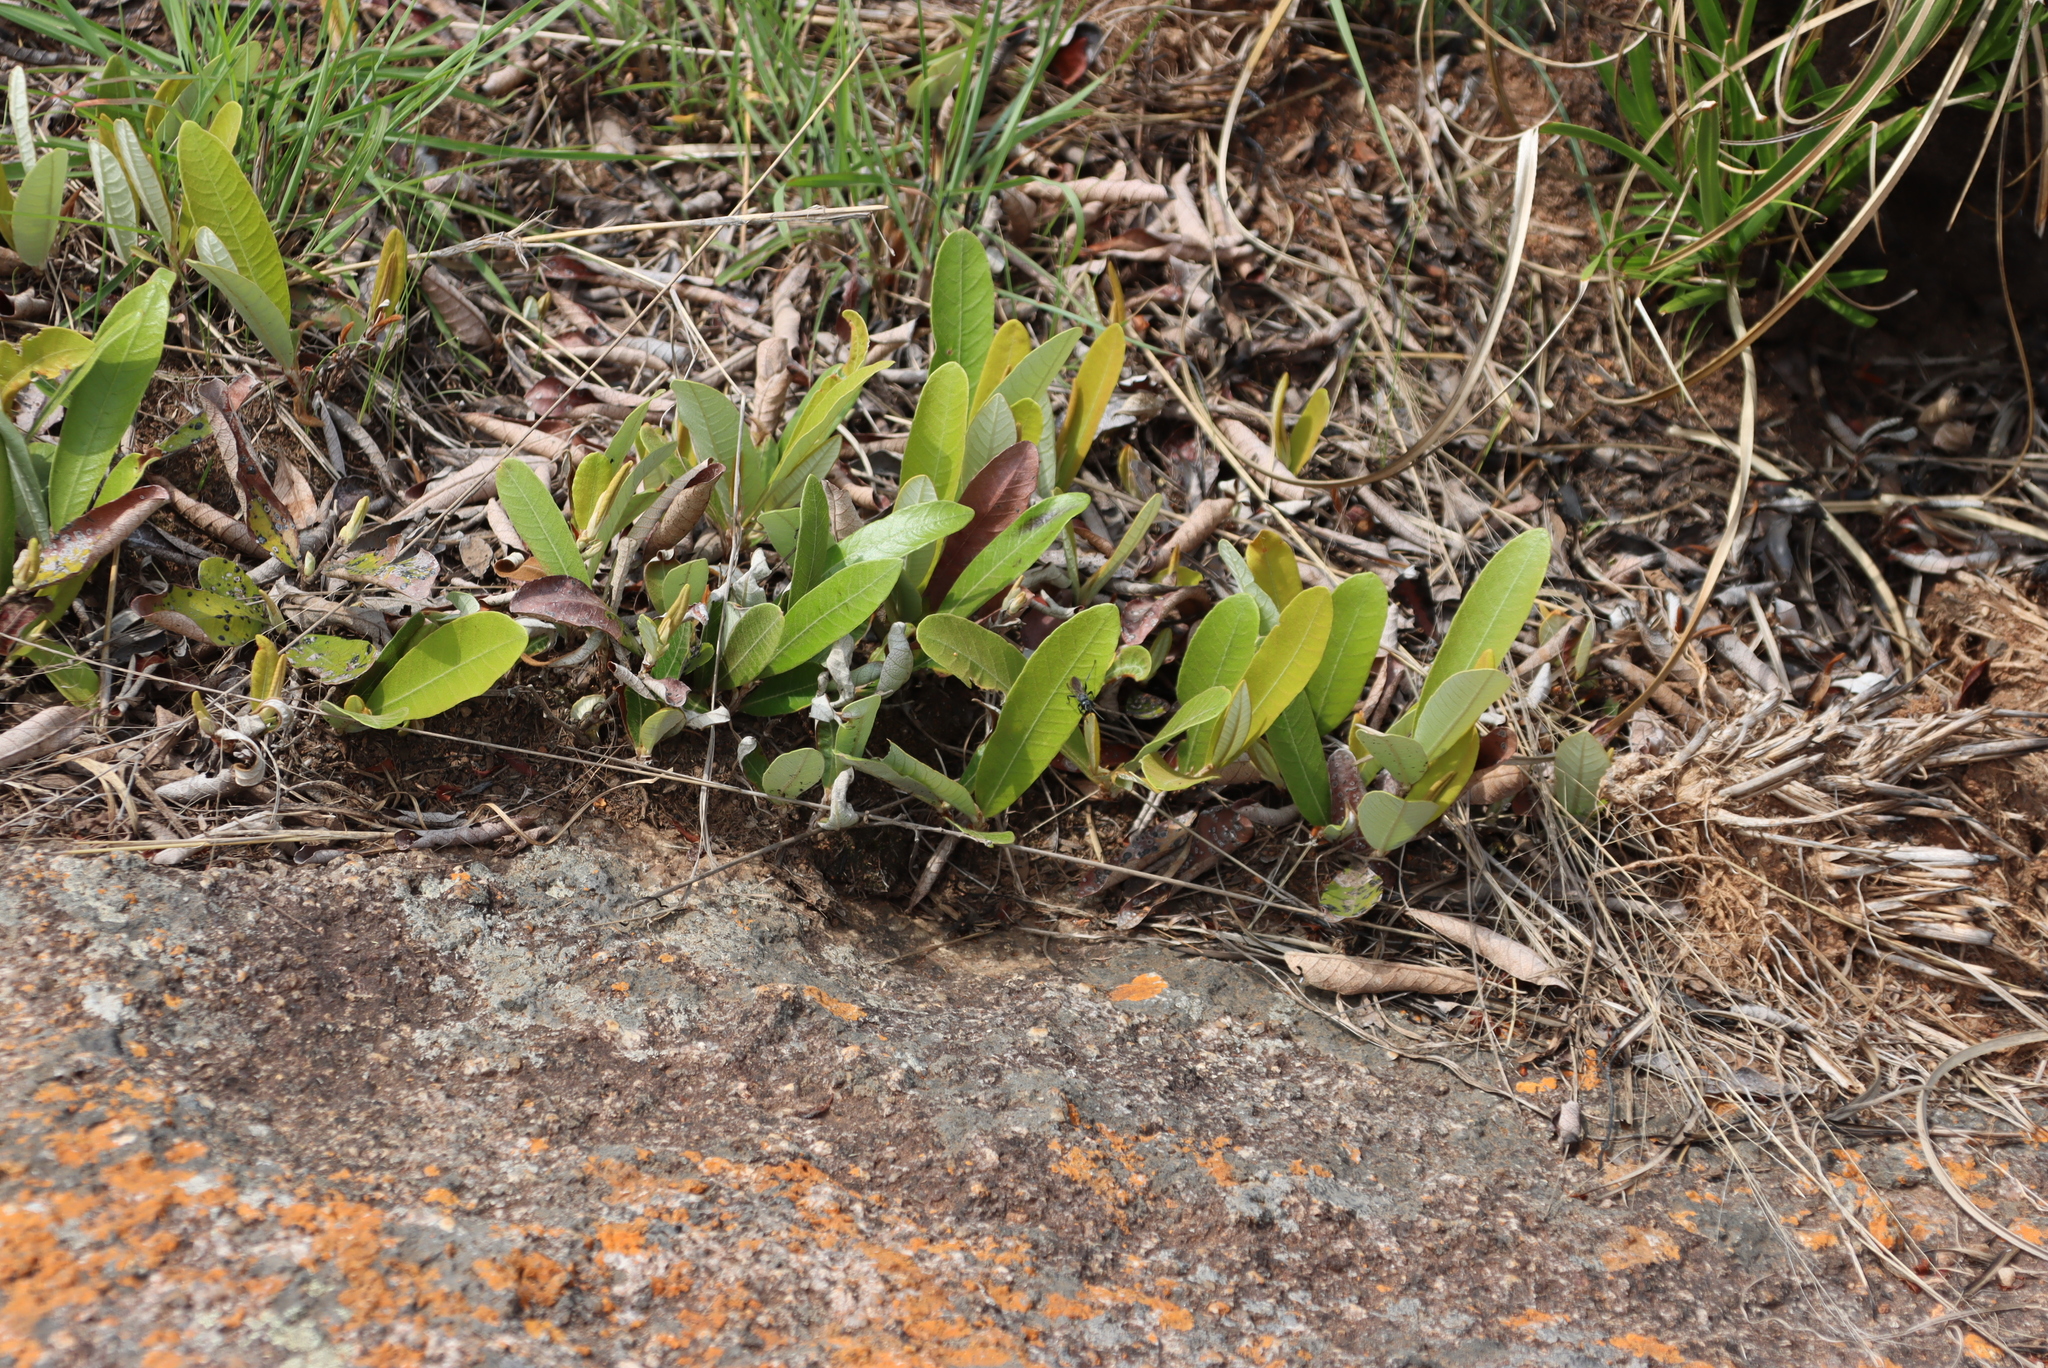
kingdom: Plantae
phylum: Tracheophyta
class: Magnoliopsida
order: Malpighiales
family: Chrysobalanaceae
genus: Parinari
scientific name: Parinari capensis
